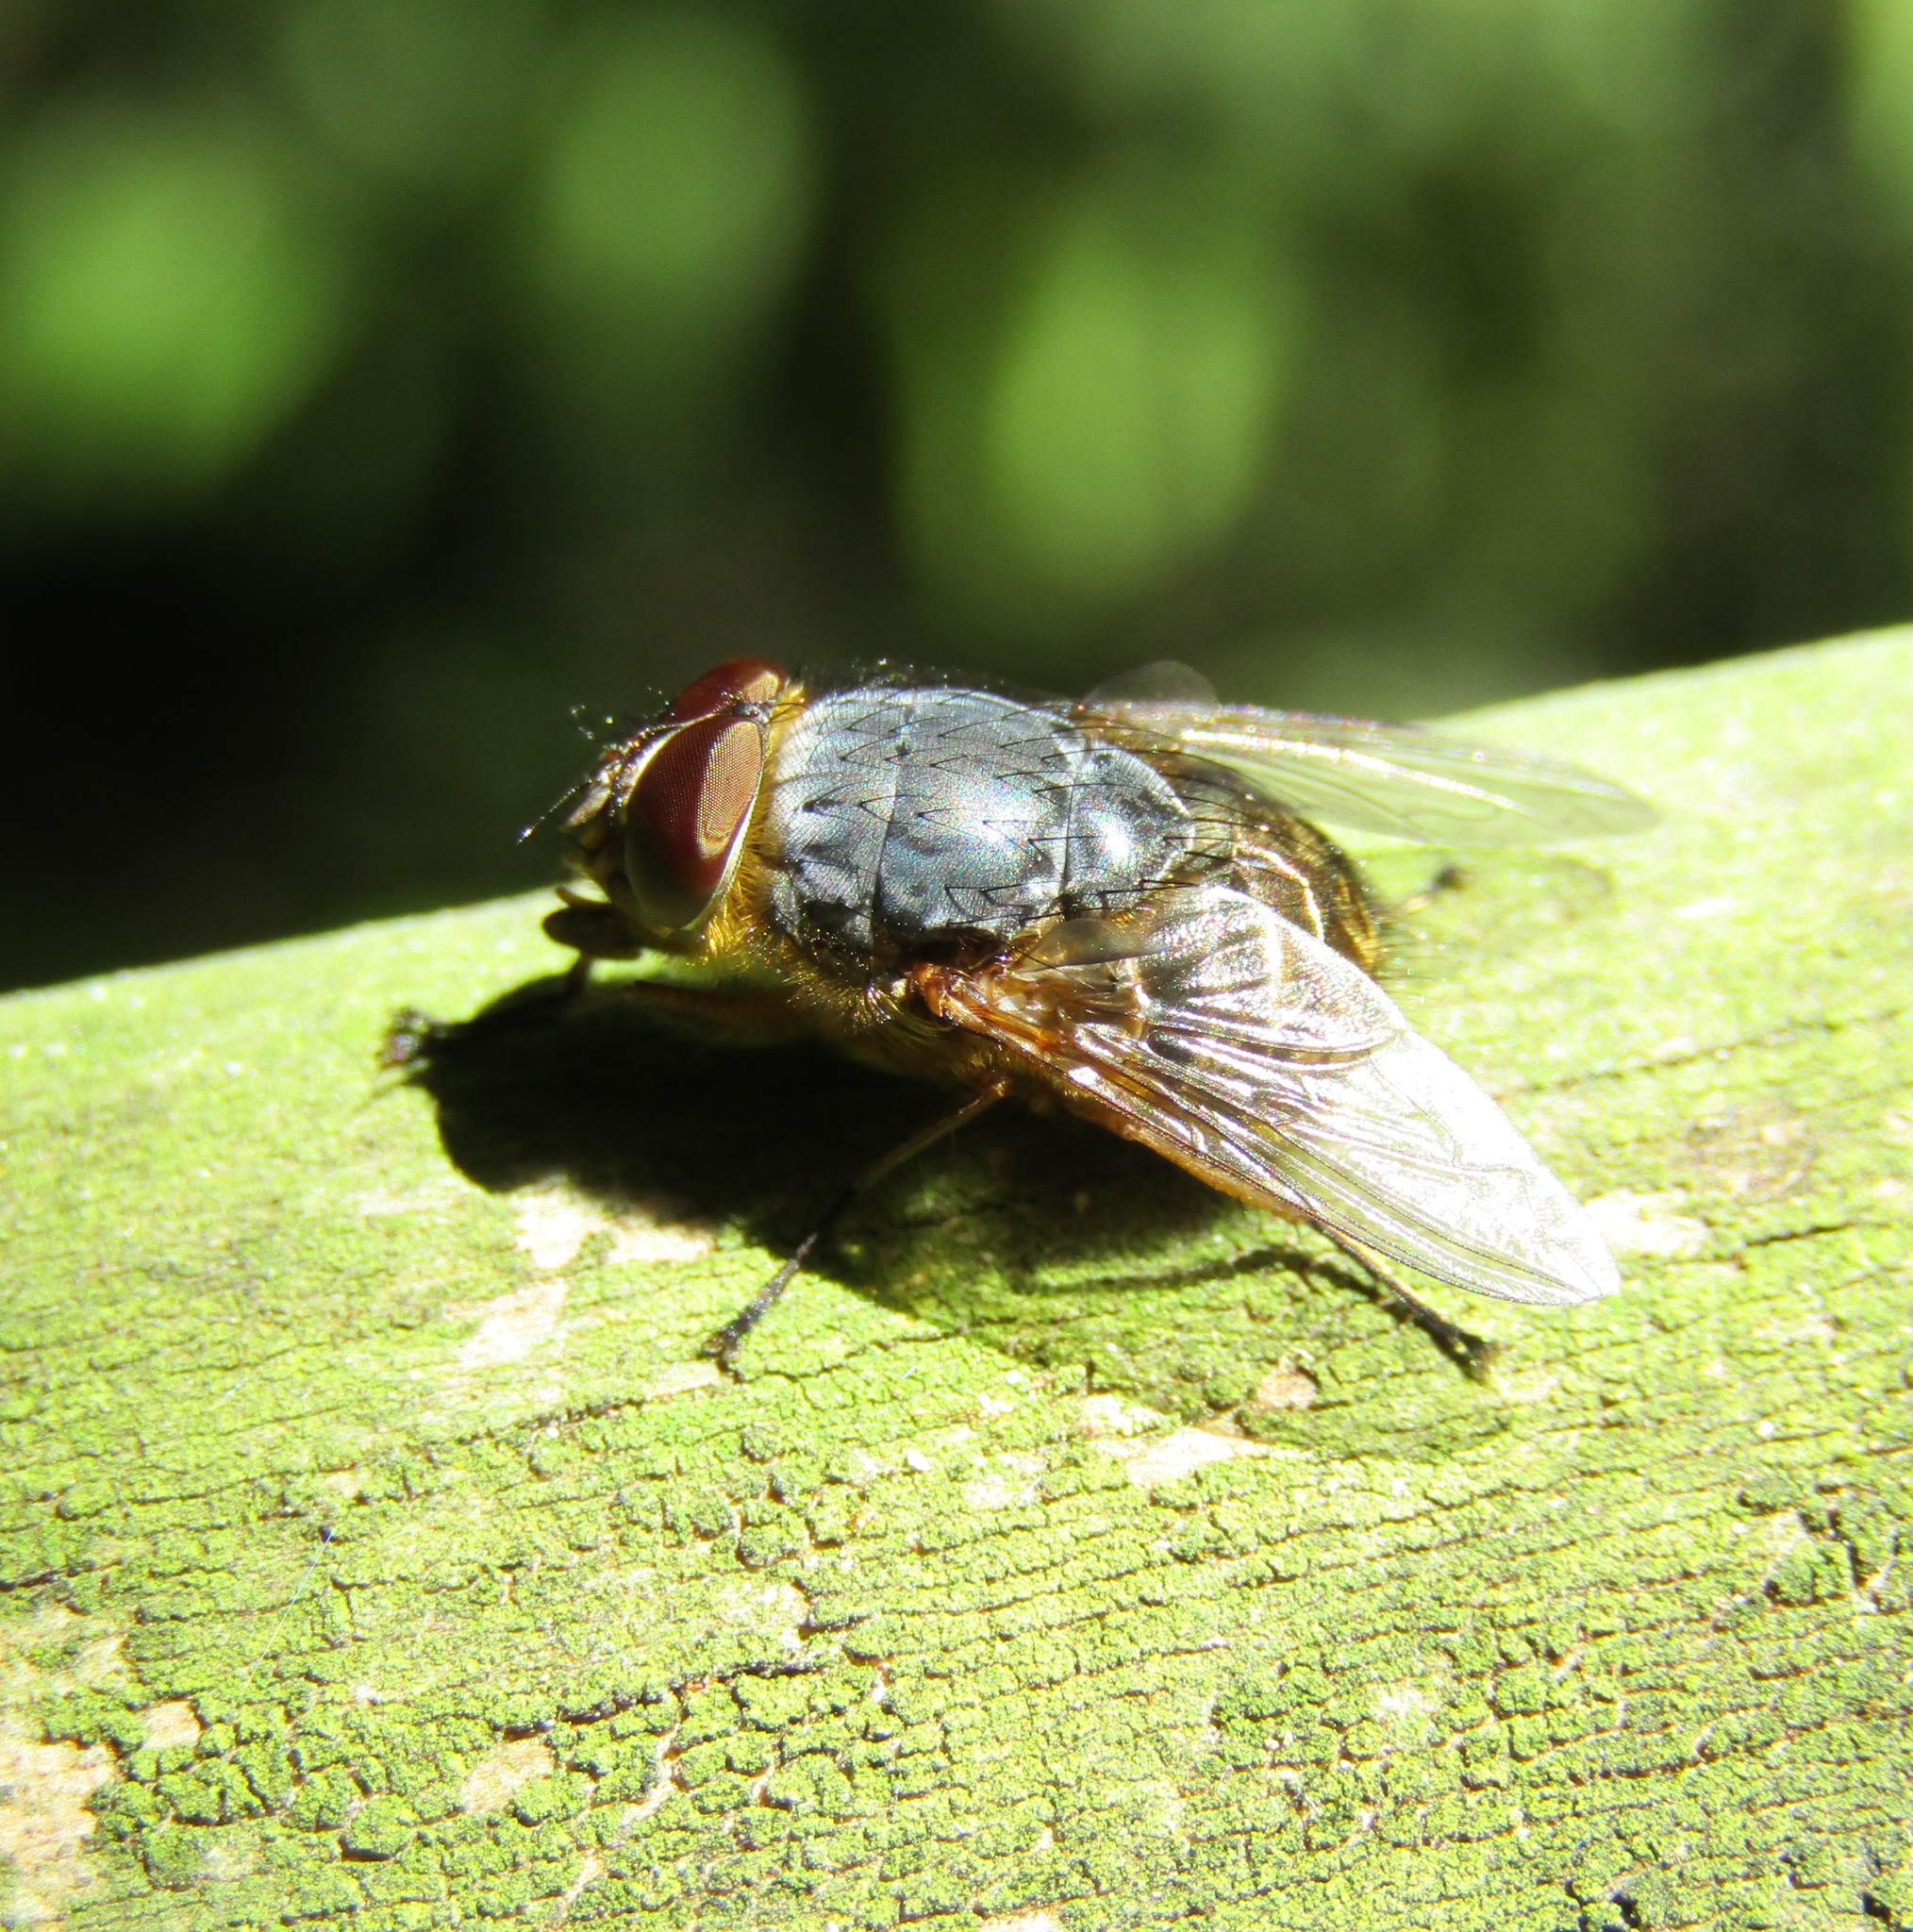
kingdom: Animalia
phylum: Arthropoda
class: Insecta
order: Diptera
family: Calliphoridae
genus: Calliphora
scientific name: Calliphora stygia
